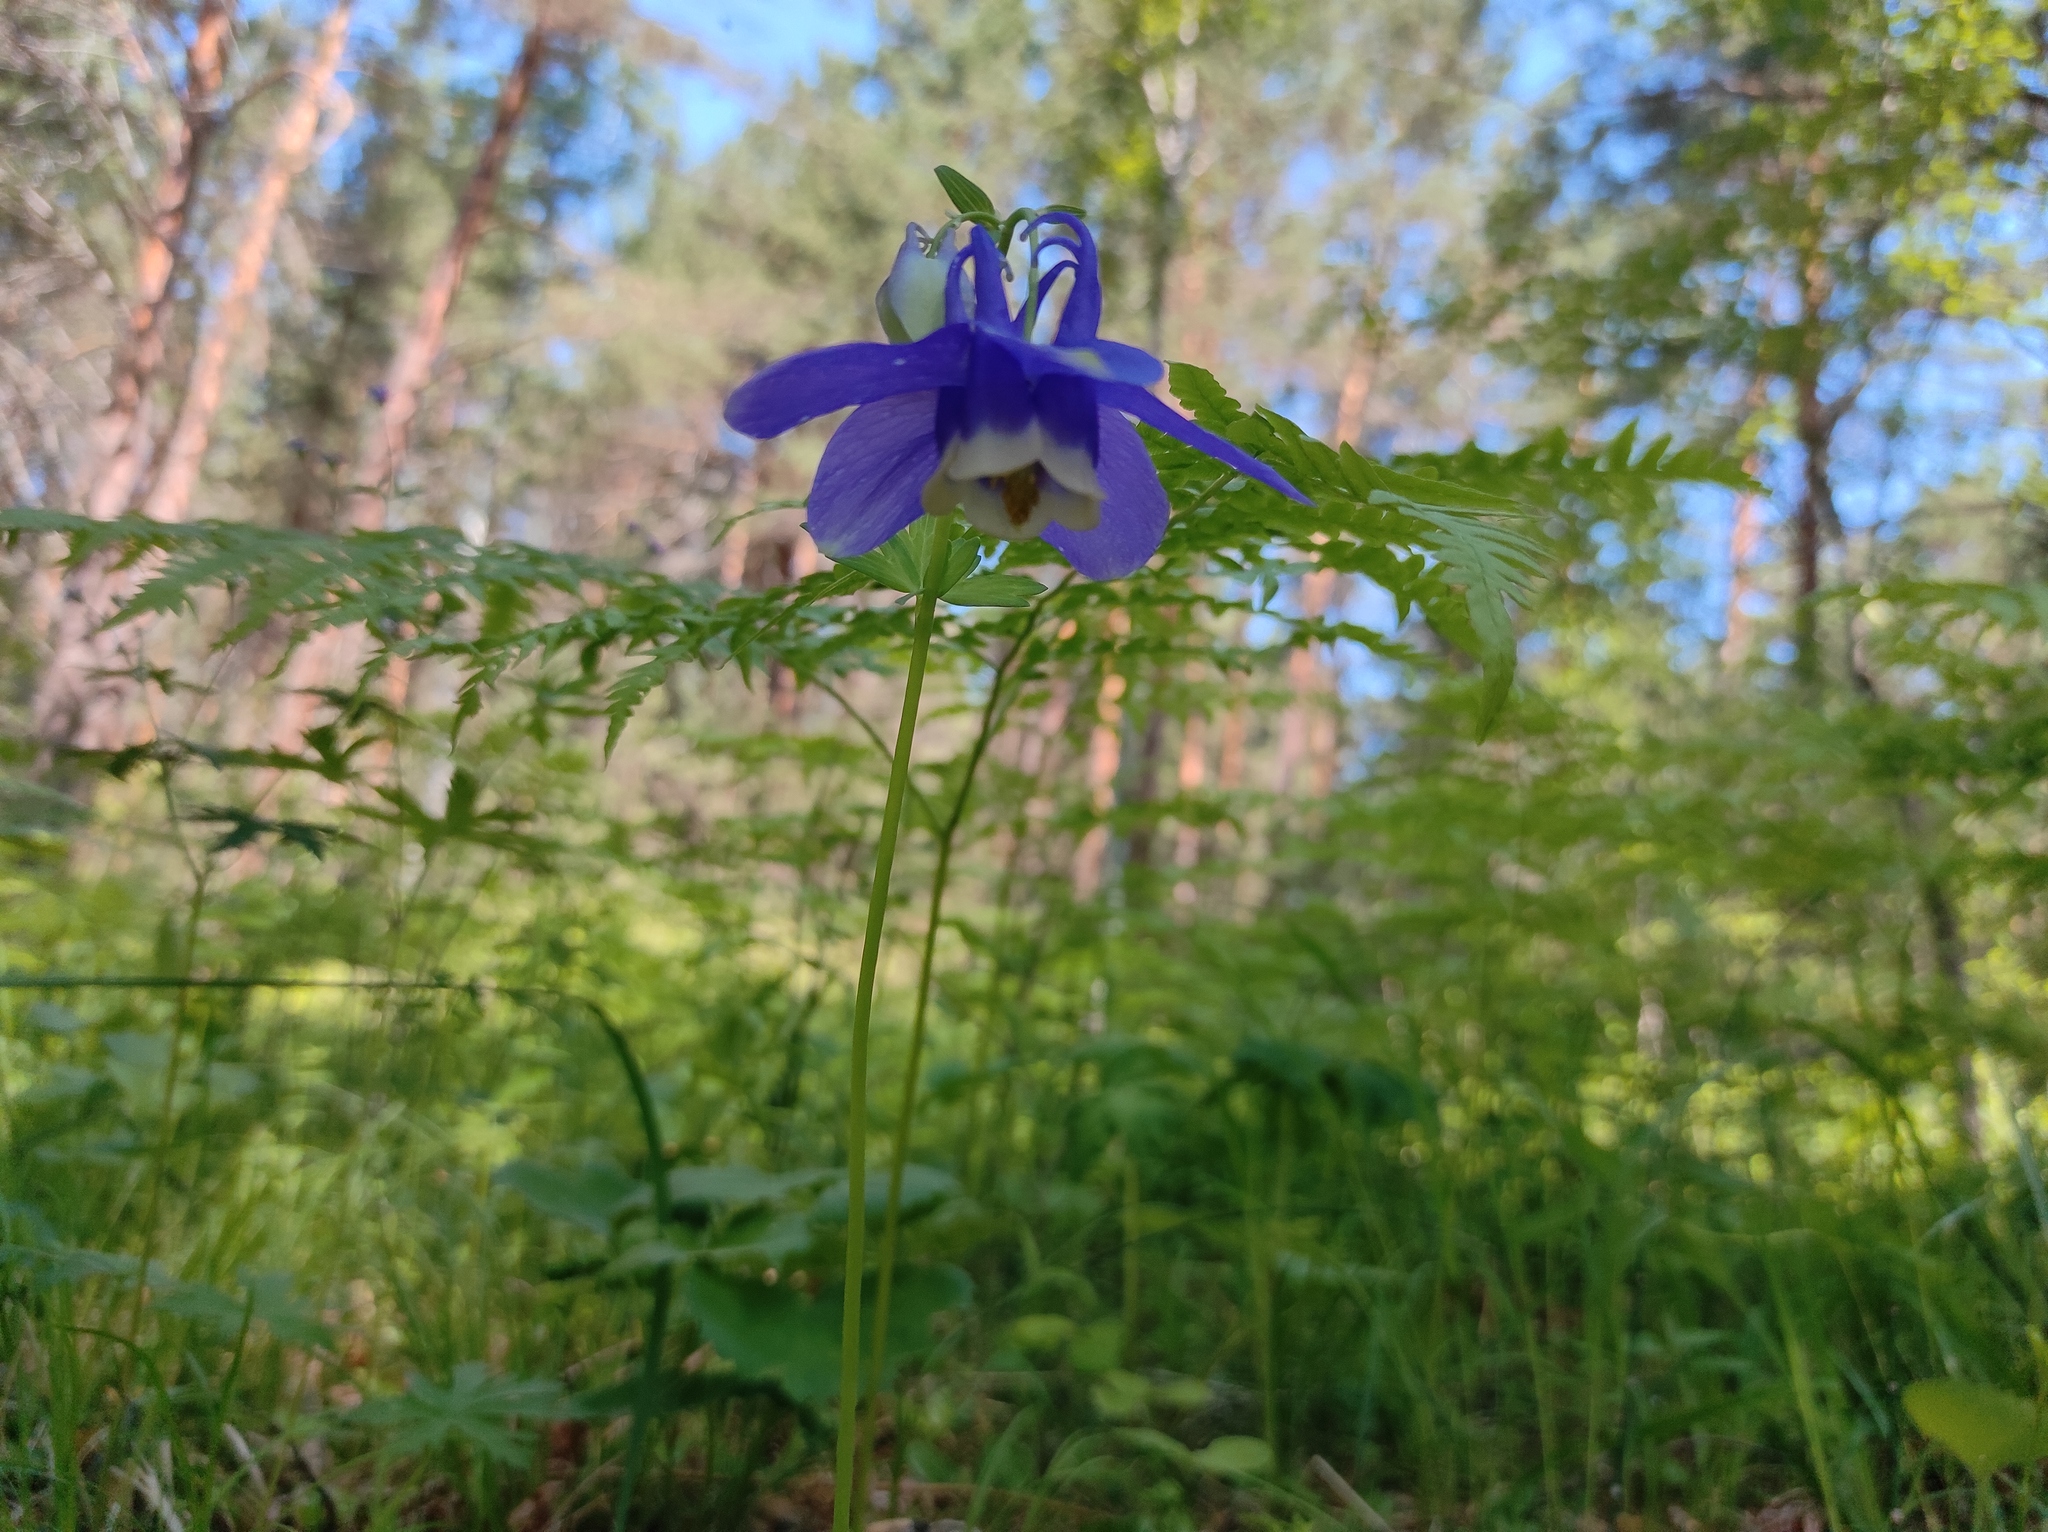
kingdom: Plantae
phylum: Tracheophyta
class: Magnoliopsida
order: Ranunculales
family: Ranunculaceae
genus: Aquilegia
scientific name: Aquilegia sibirica
